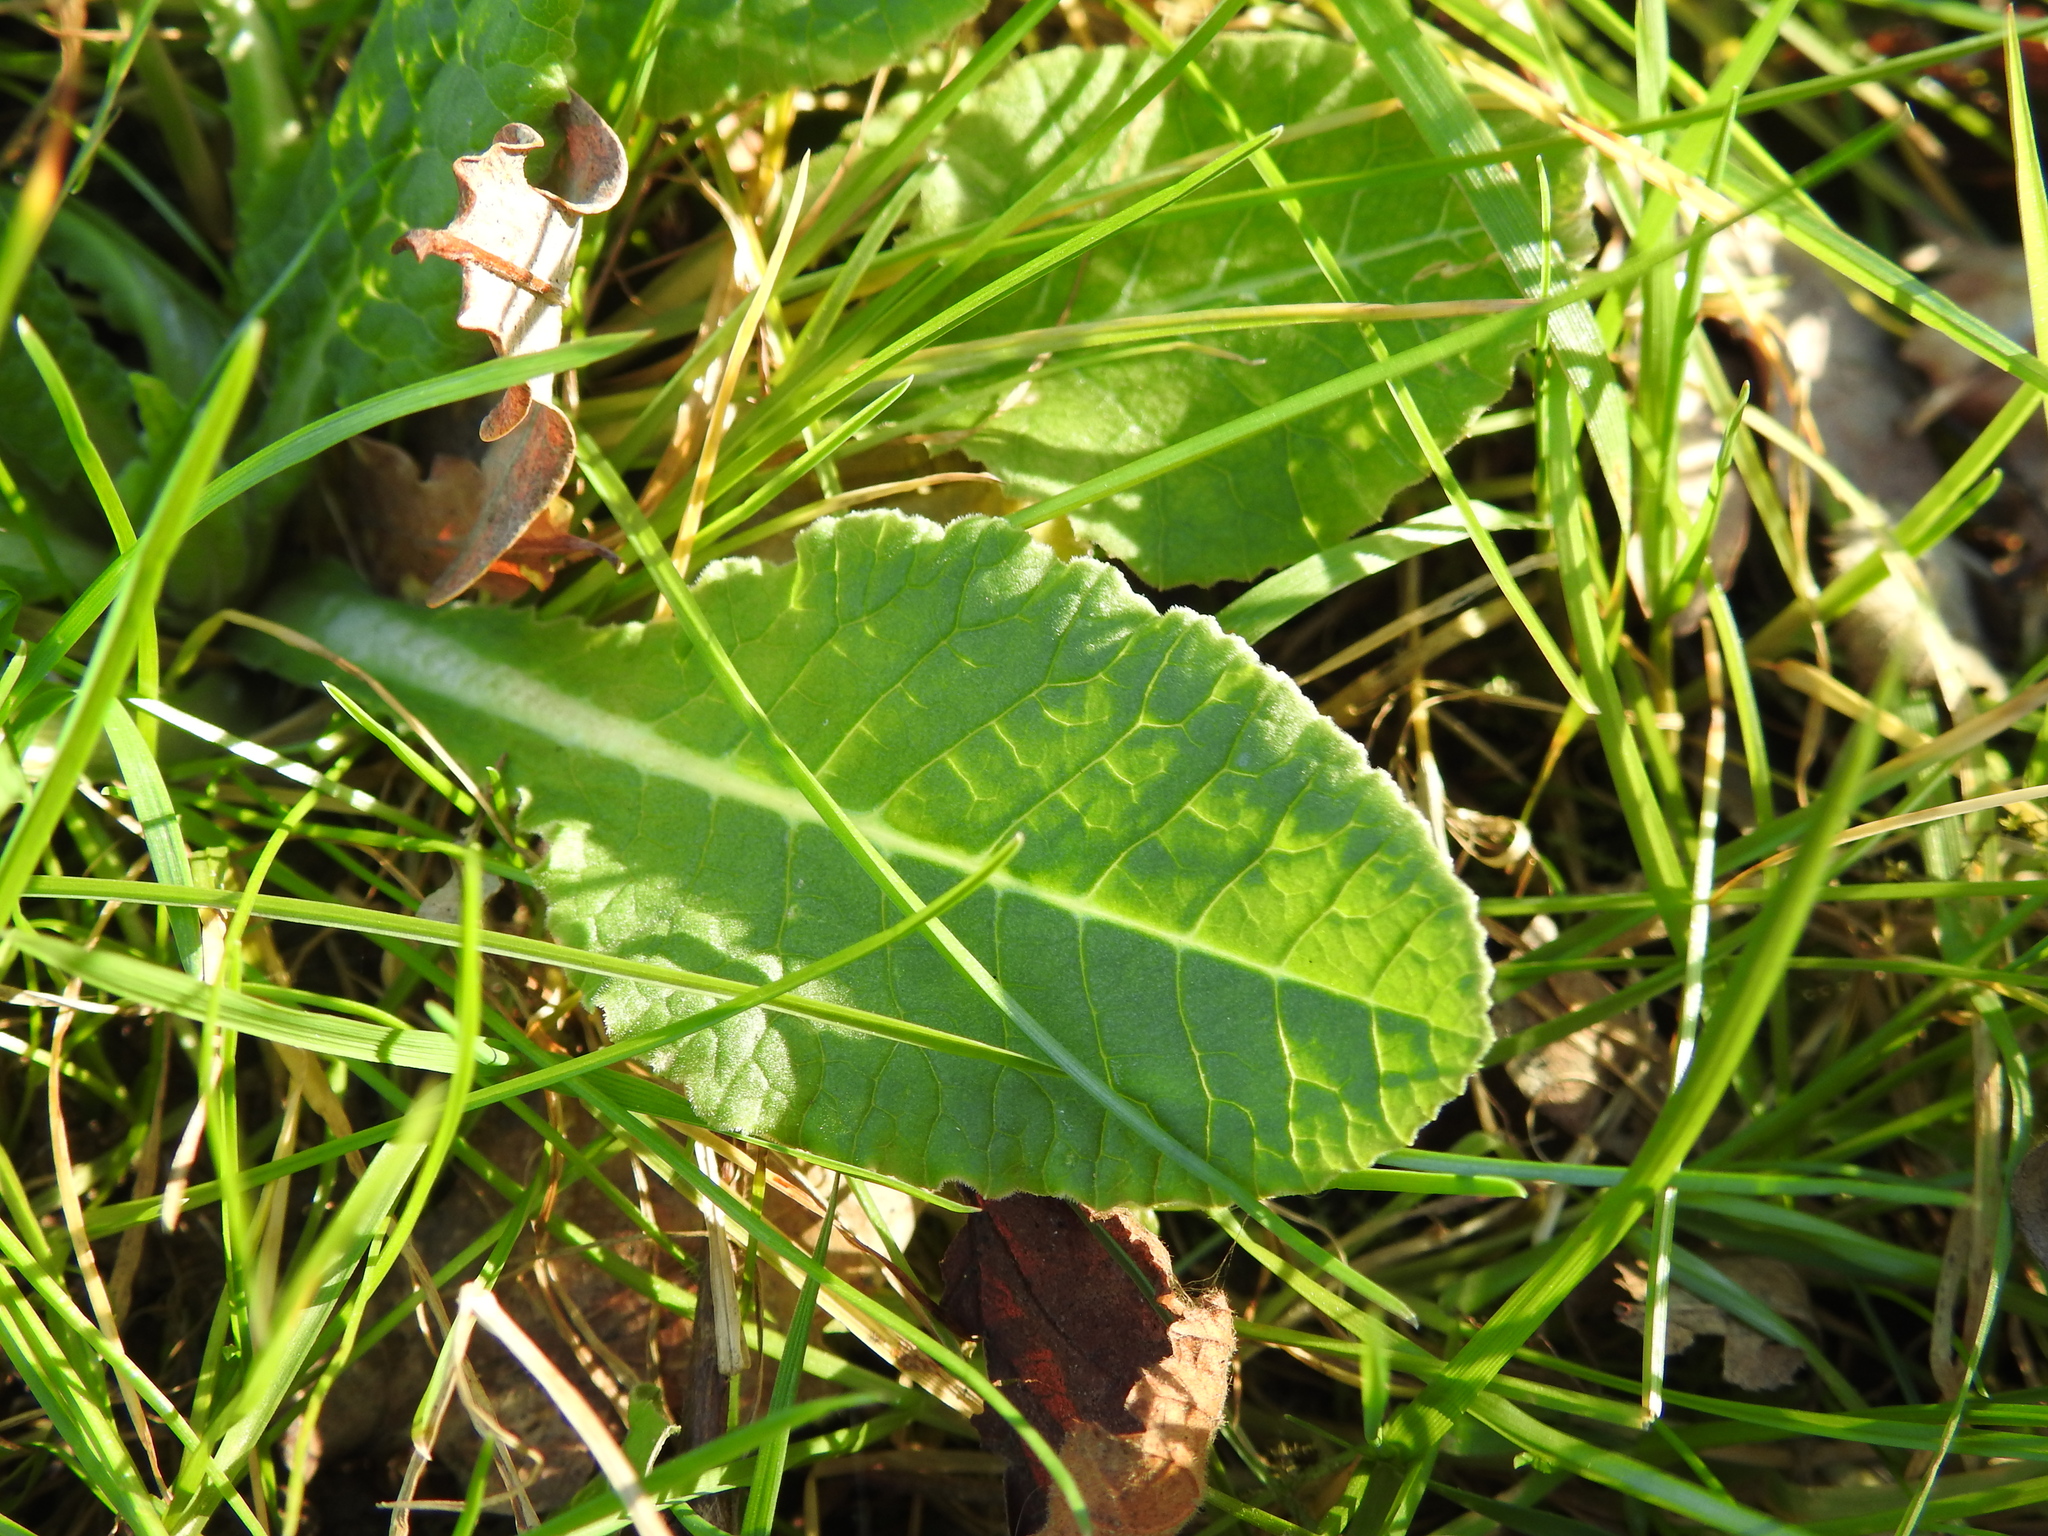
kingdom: Plantae
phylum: Tracheophyta
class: Magnoliopsida
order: Ericales
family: Primulaceae
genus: Primula
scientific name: Primula veris
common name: Cowslip
